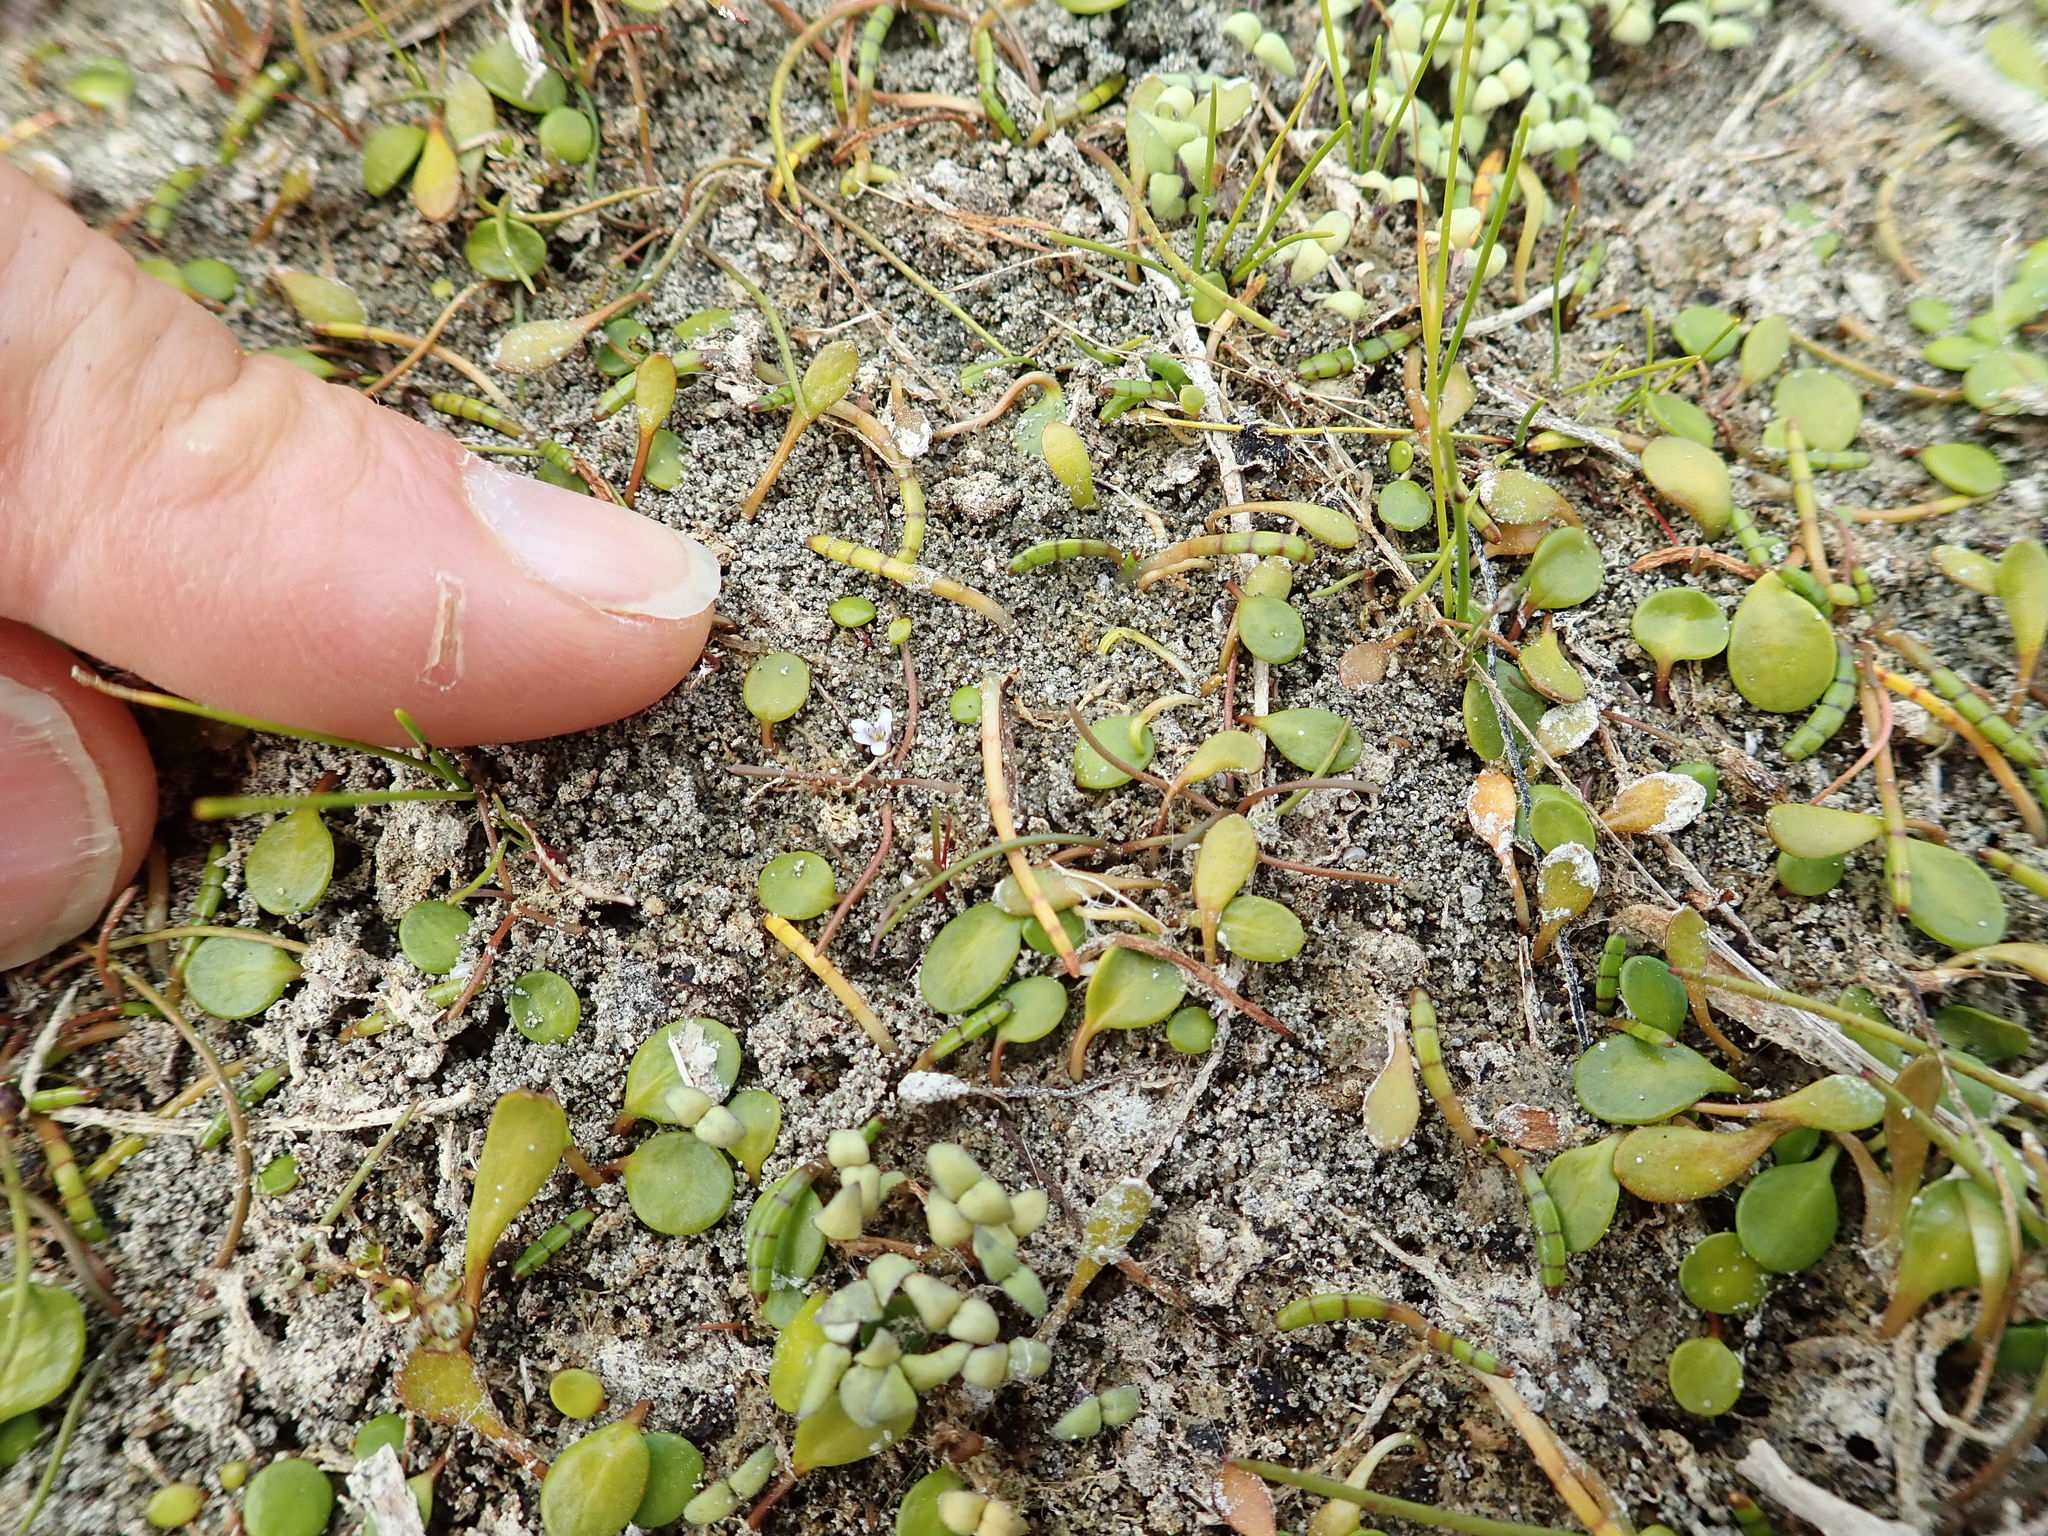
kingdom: Plantae
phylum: Tracheophyta
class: Magnoliopsida
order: Lamiales
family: Scrophulariaceae
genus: Limosella
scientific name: Limosella australis
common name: Welsh mudwort
